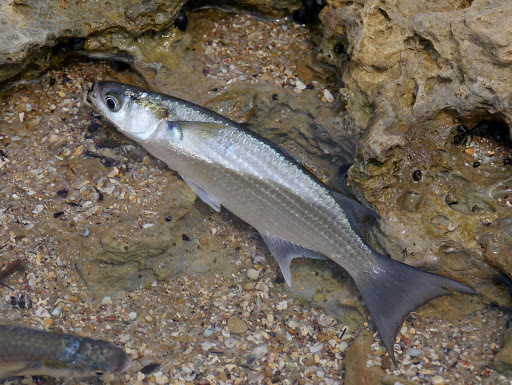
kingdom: Animalia
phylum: Chordata
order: Mugiliformes
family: Mugilidae
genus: Neochelon
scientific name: Neochelon falcipinnis
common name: Sicklefin mullet
